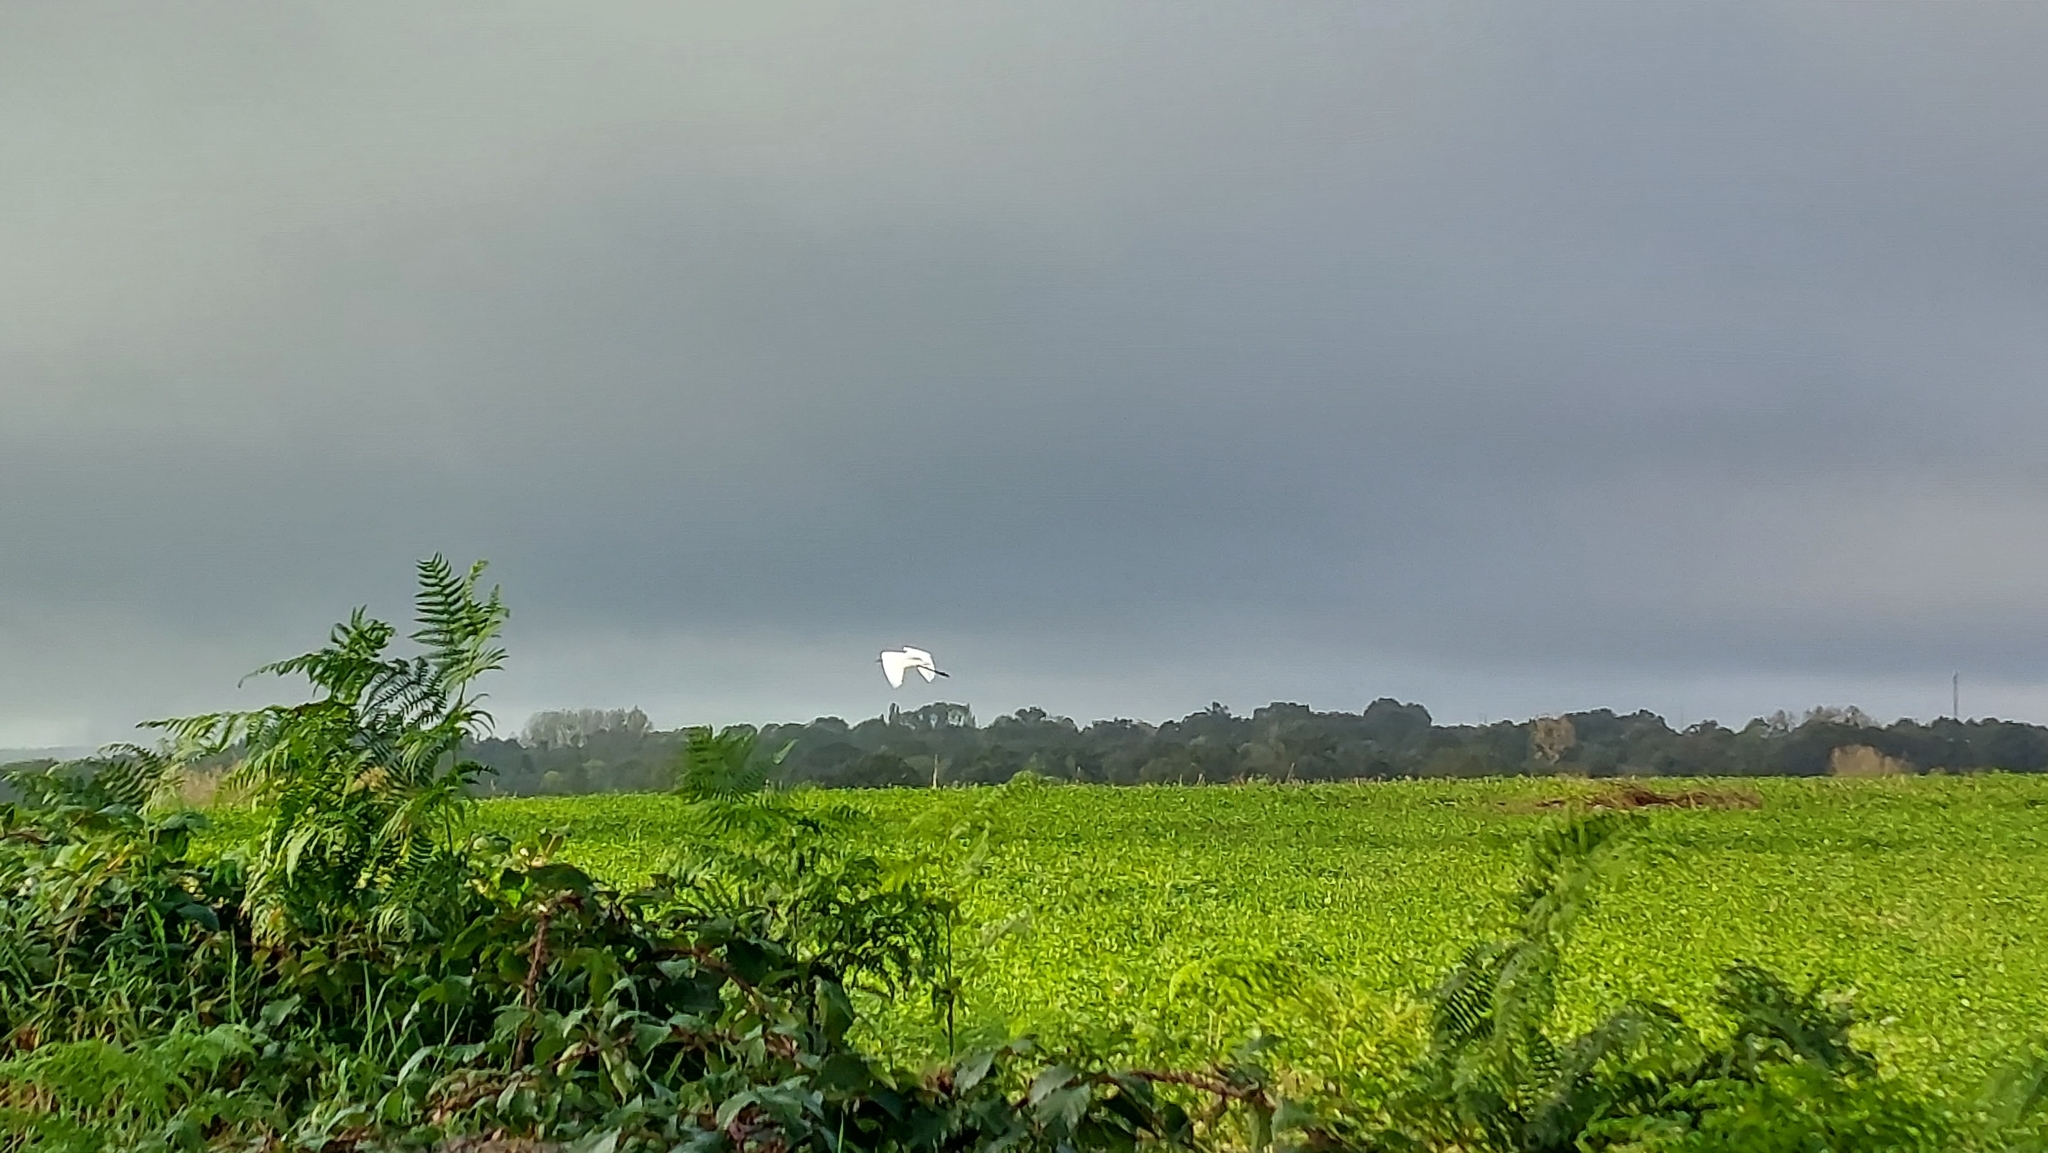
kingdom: Animalia
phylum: Chordata
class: Aves
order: Pelecaniformes
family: Ardeidae
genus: Ardea
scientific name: Ardea alba
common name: Great egret
